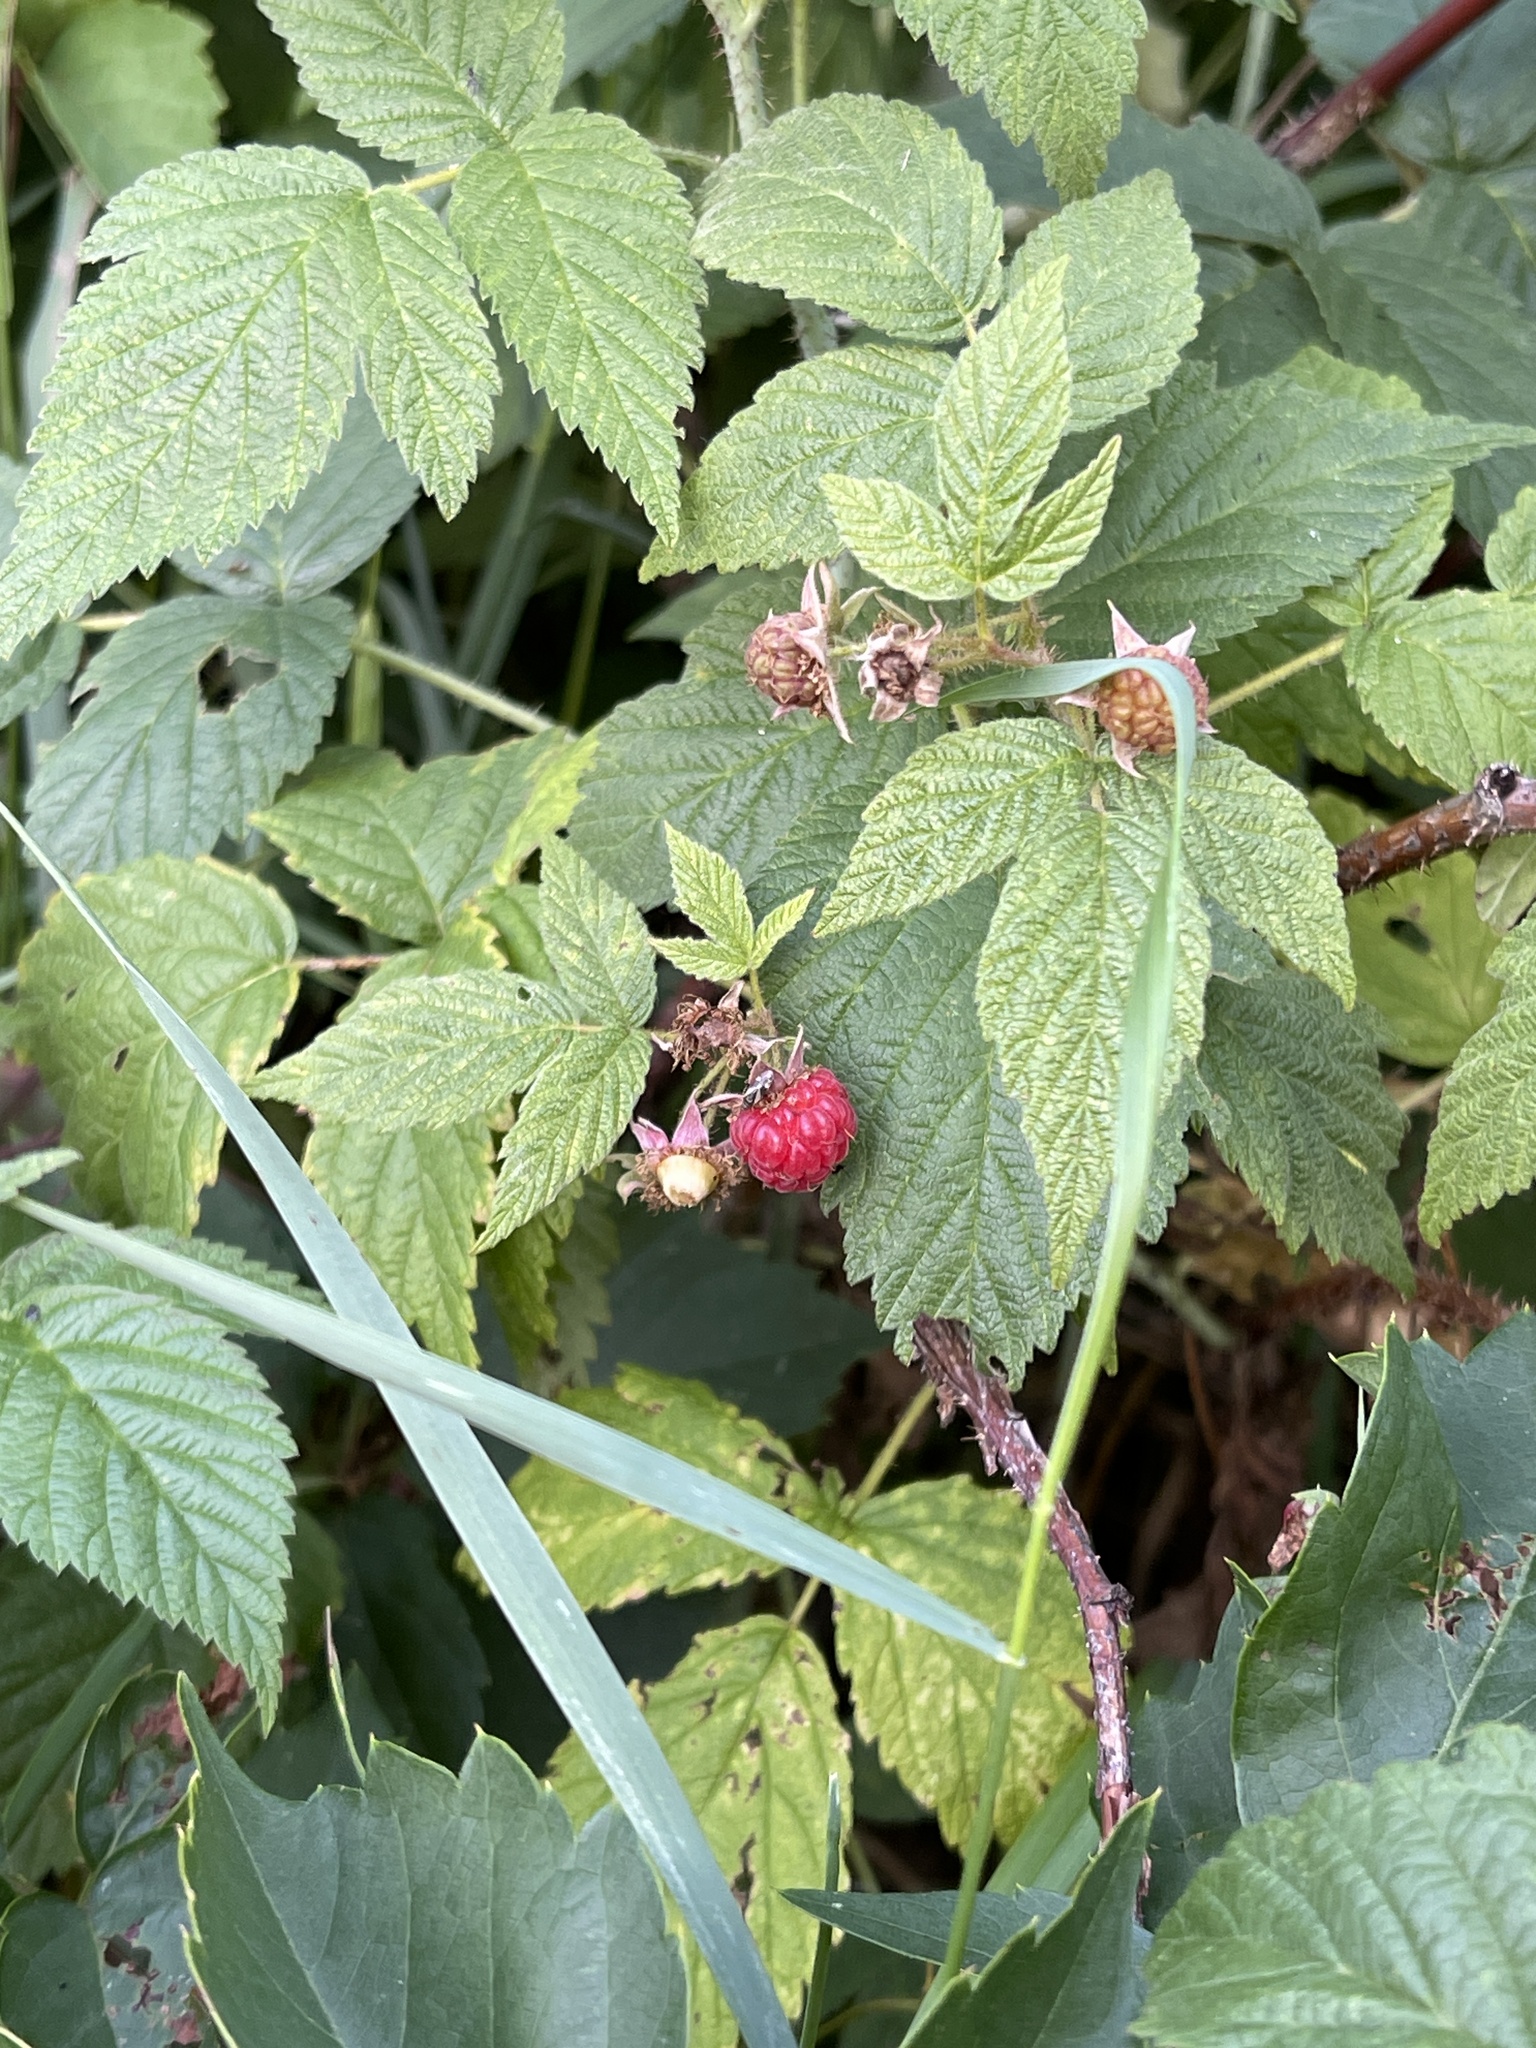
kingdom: Plantae
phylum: Tracheophyta
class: Magnoliopsida
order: Rosales
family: Rosaceae
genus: Rubus
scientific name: Rubus idaeus
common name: Raspberry
